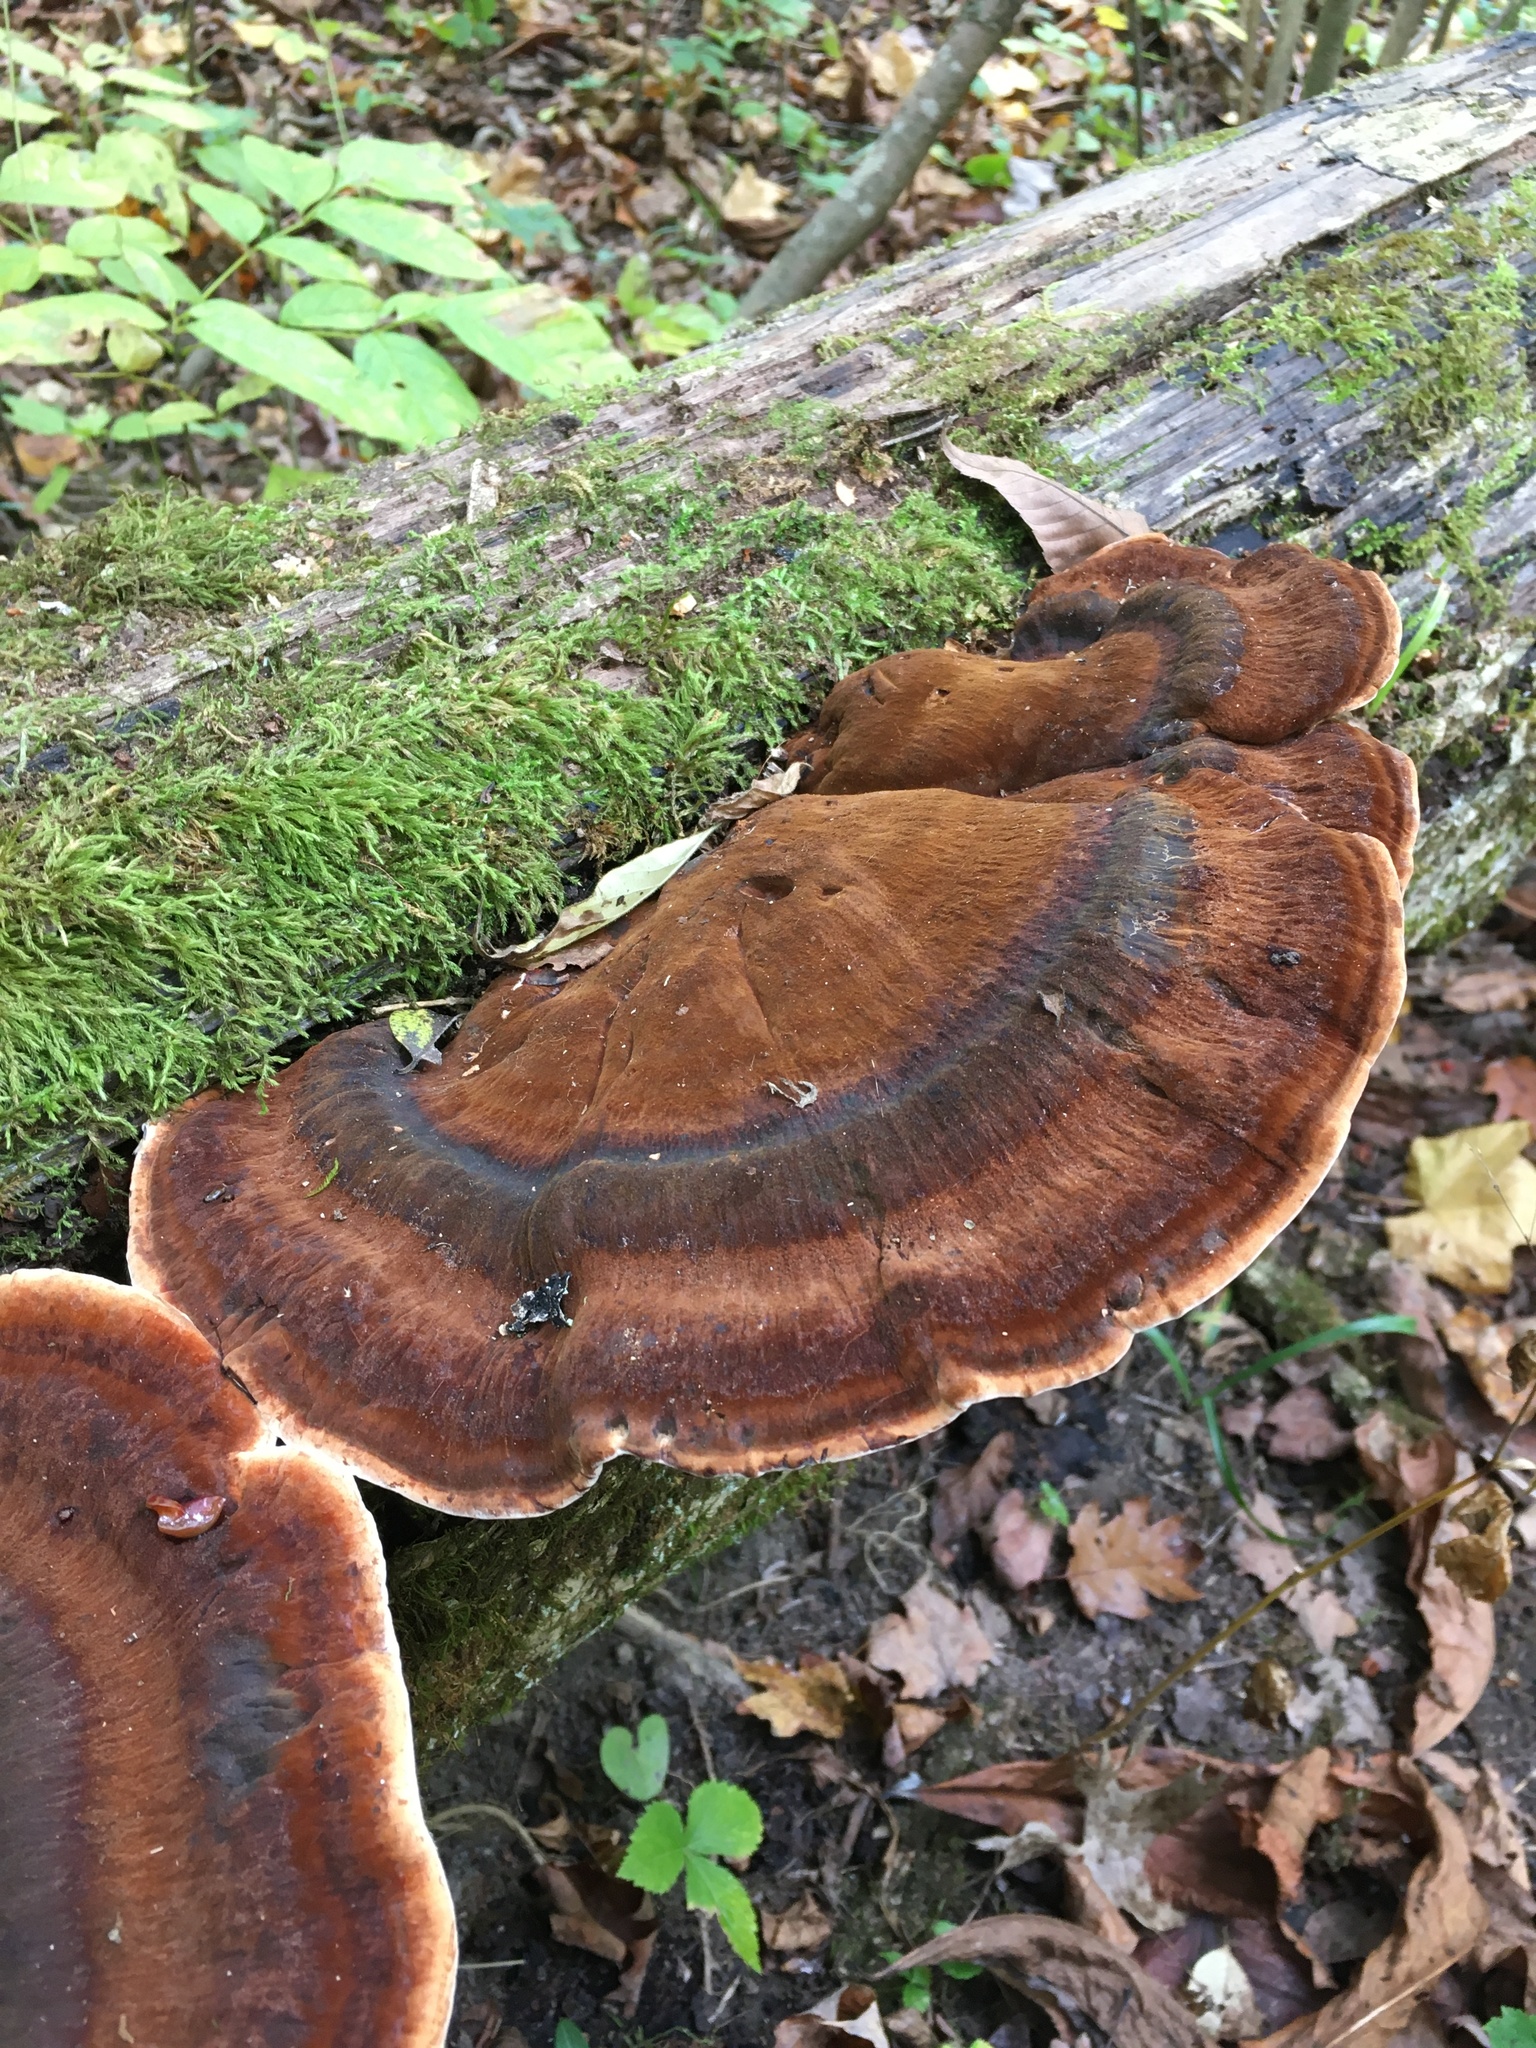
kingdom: Fungi
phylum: Basidiomycota
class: Agaricomycetes
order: Polyporales
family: Ischnodermataceae
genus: Ischnoderma
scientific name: Ischnoderma resinosum
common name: Resinous polypore
